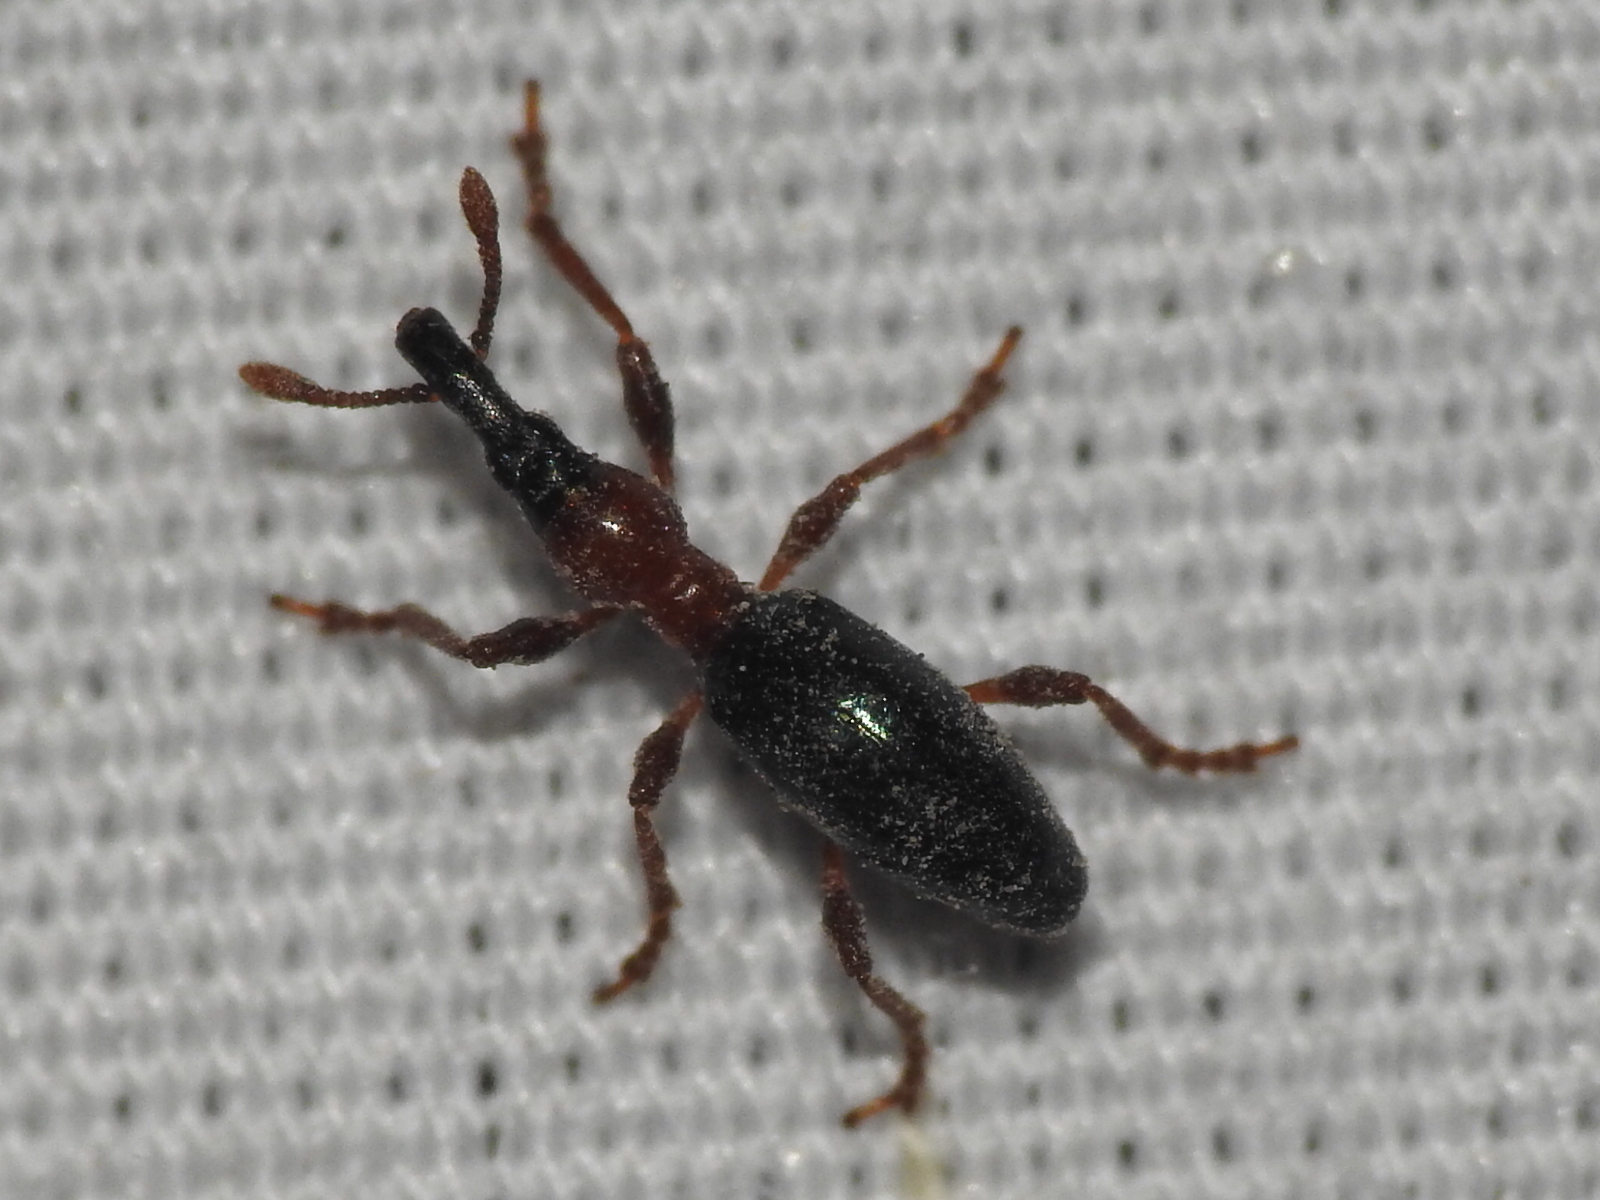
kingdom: Animalia
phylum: Arthropoda
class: Insecta
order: Coleoptera
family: Brentidae
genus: Cylas
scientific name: Cylas formicarius
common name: Sweetpotato weevil
